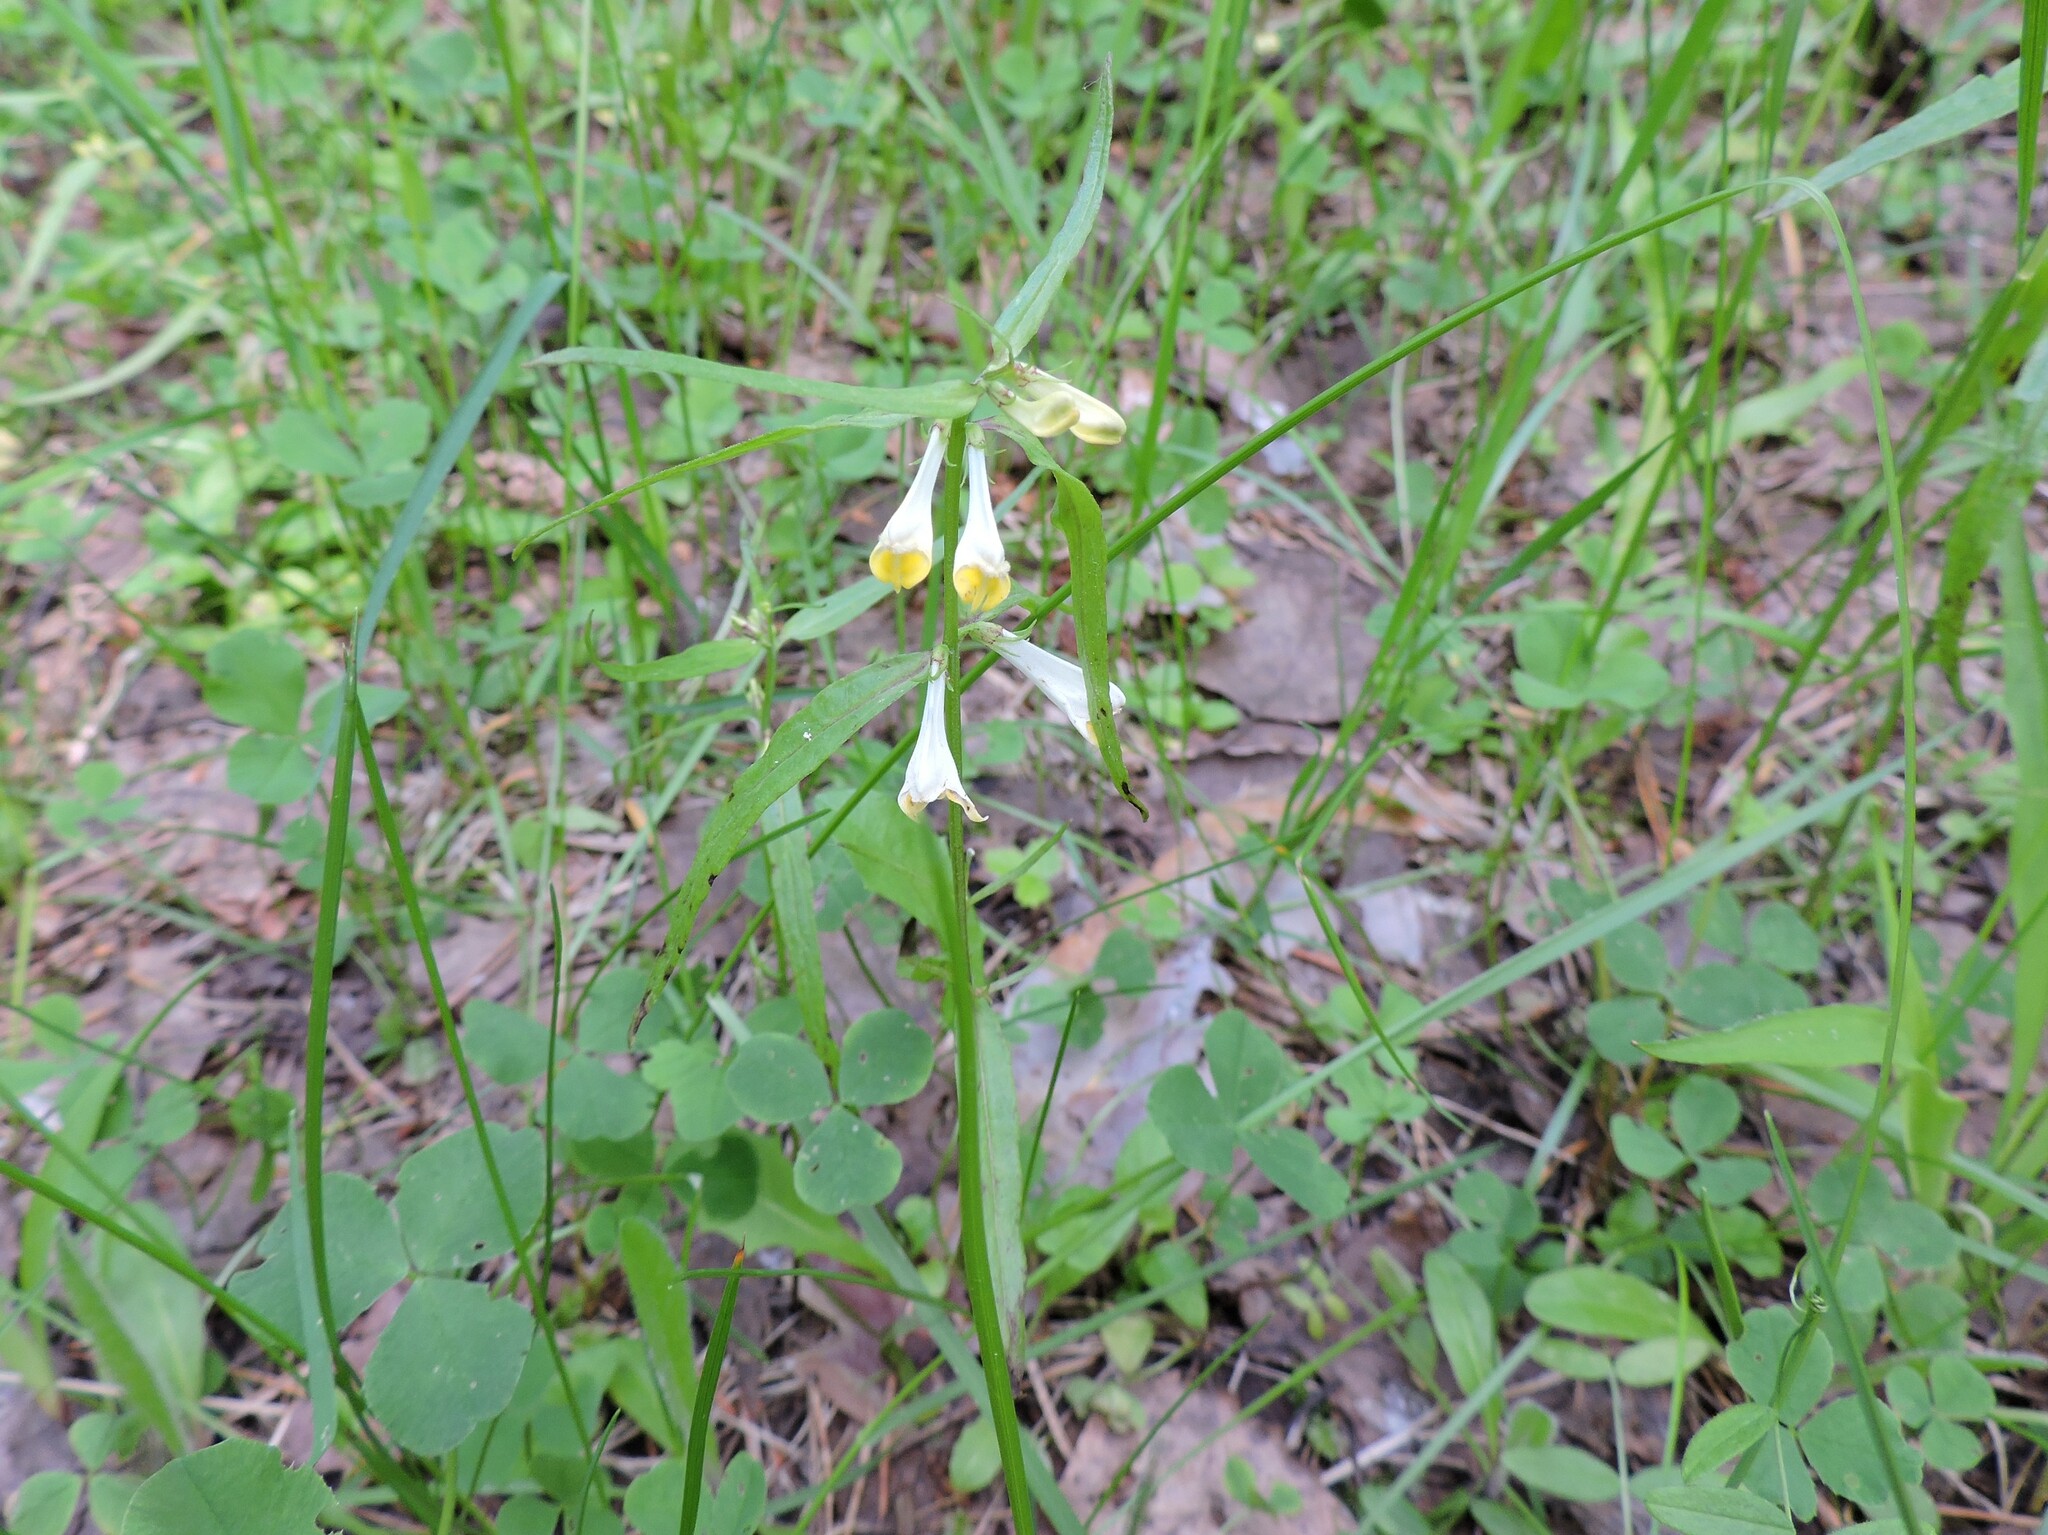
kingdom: Plantae
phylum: Tracheophyta
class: Magnoliopsida
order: Lamiales
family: Orobanchaceae
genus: Melampyrum
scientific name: Melampyrum pratense
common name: Common cow-wheat
